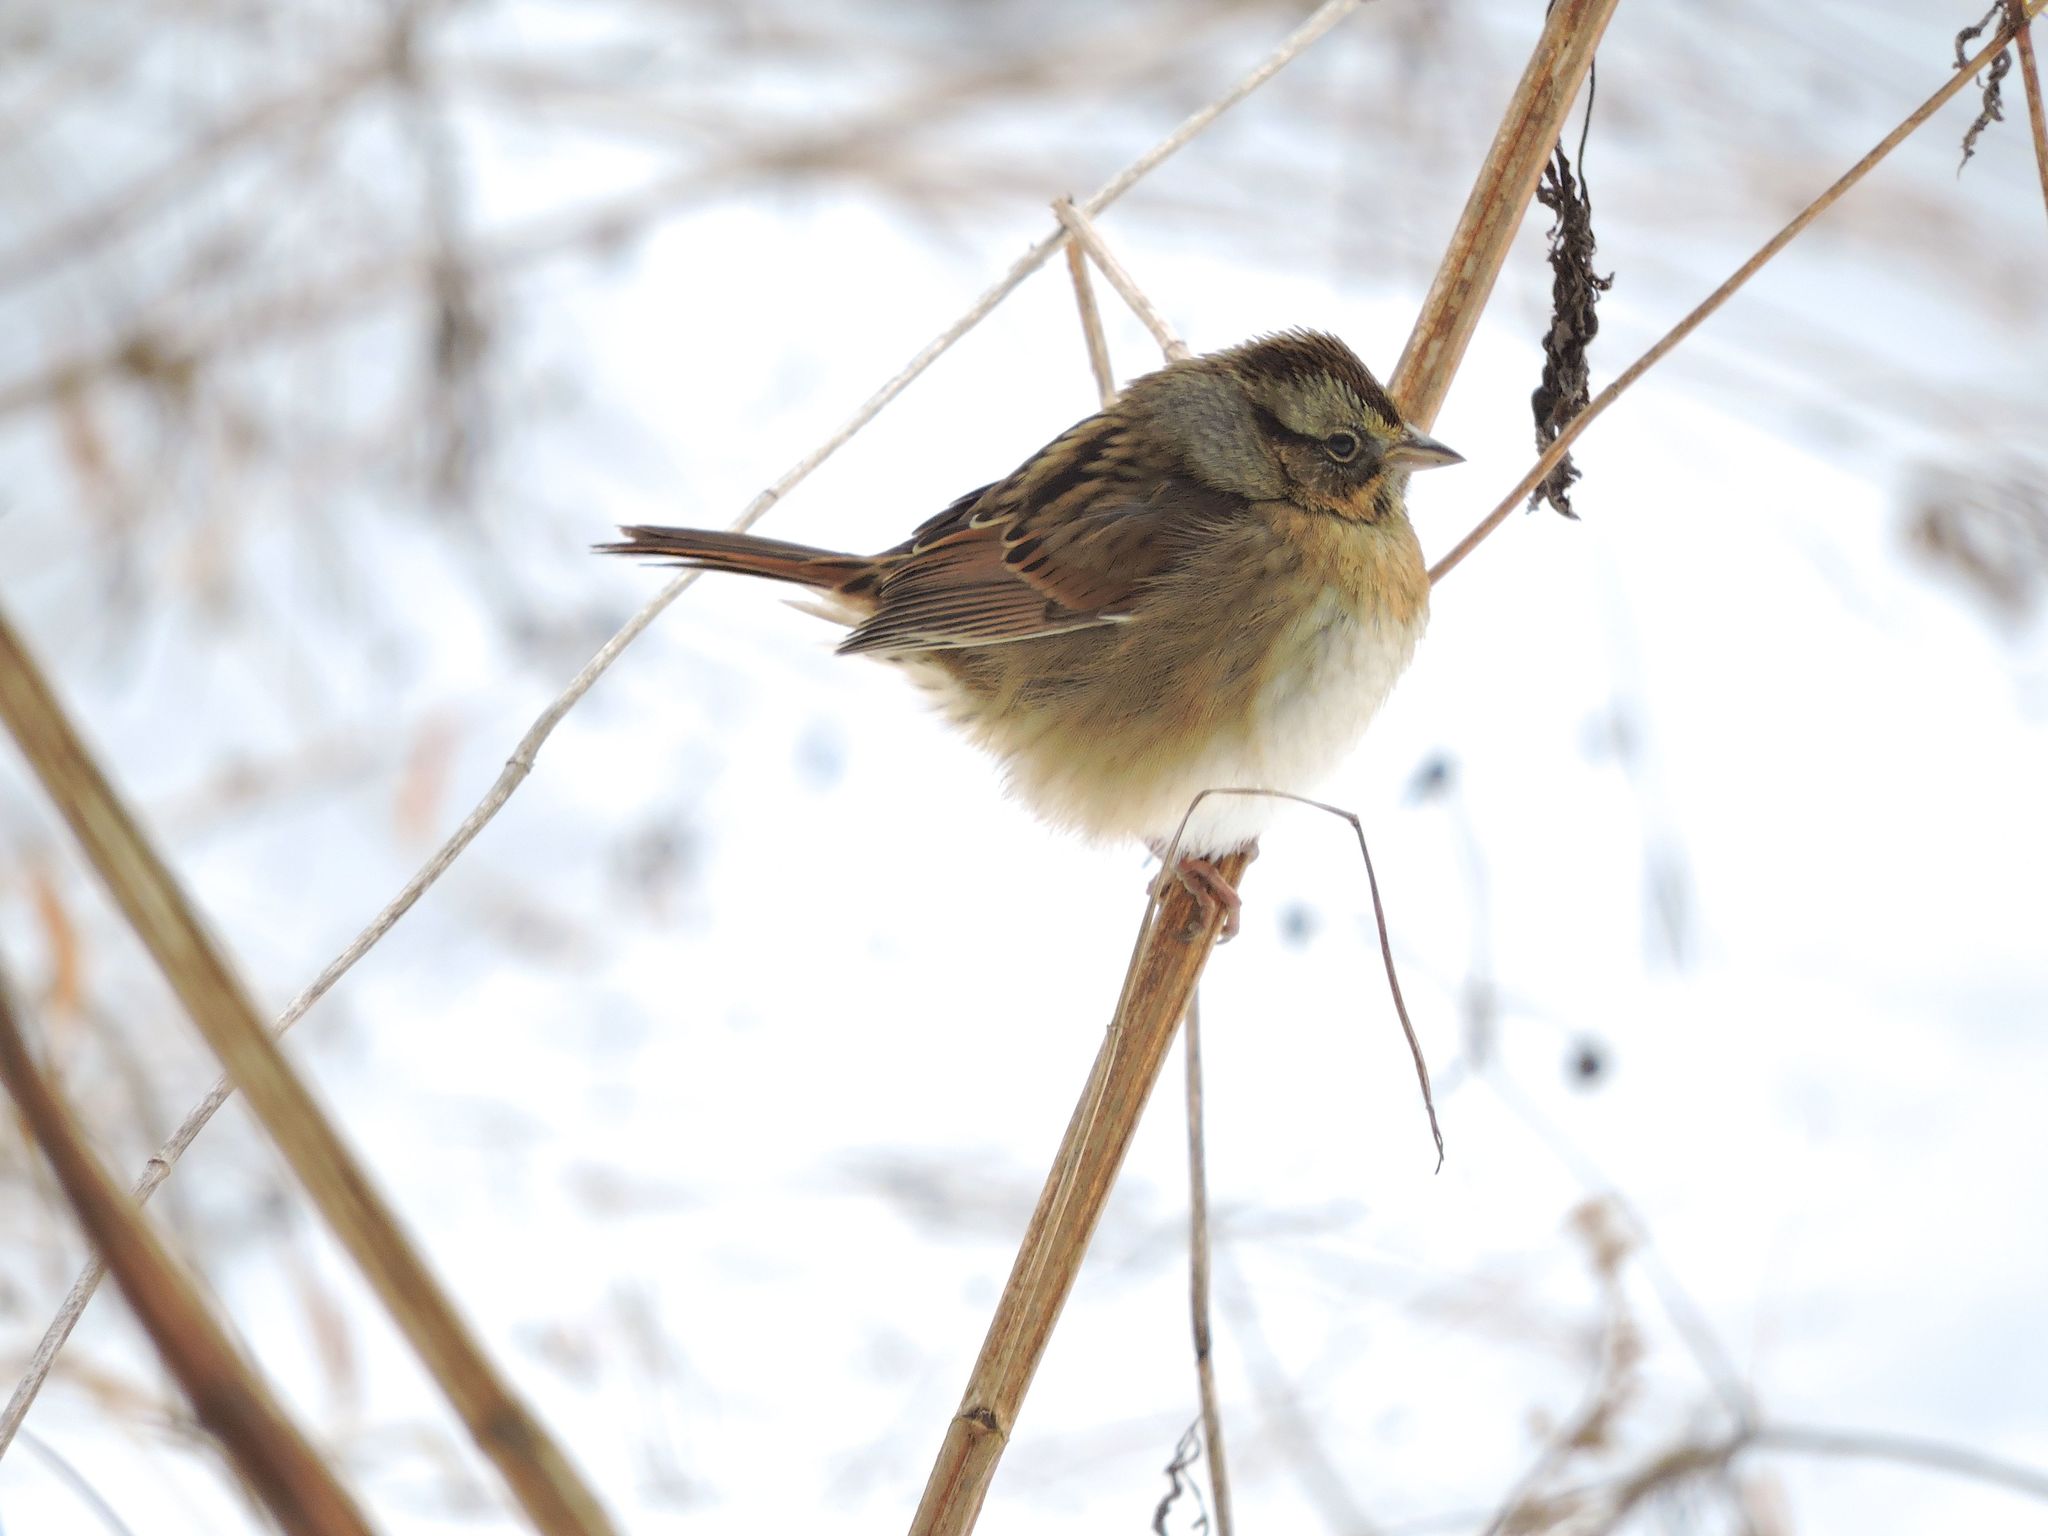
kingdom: Animalia
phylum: Chordata
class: Aves
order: Passeriformes
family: Passerellidae
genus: Melospiza
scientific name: Melospiza georgiana
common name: Swamp sparrow
